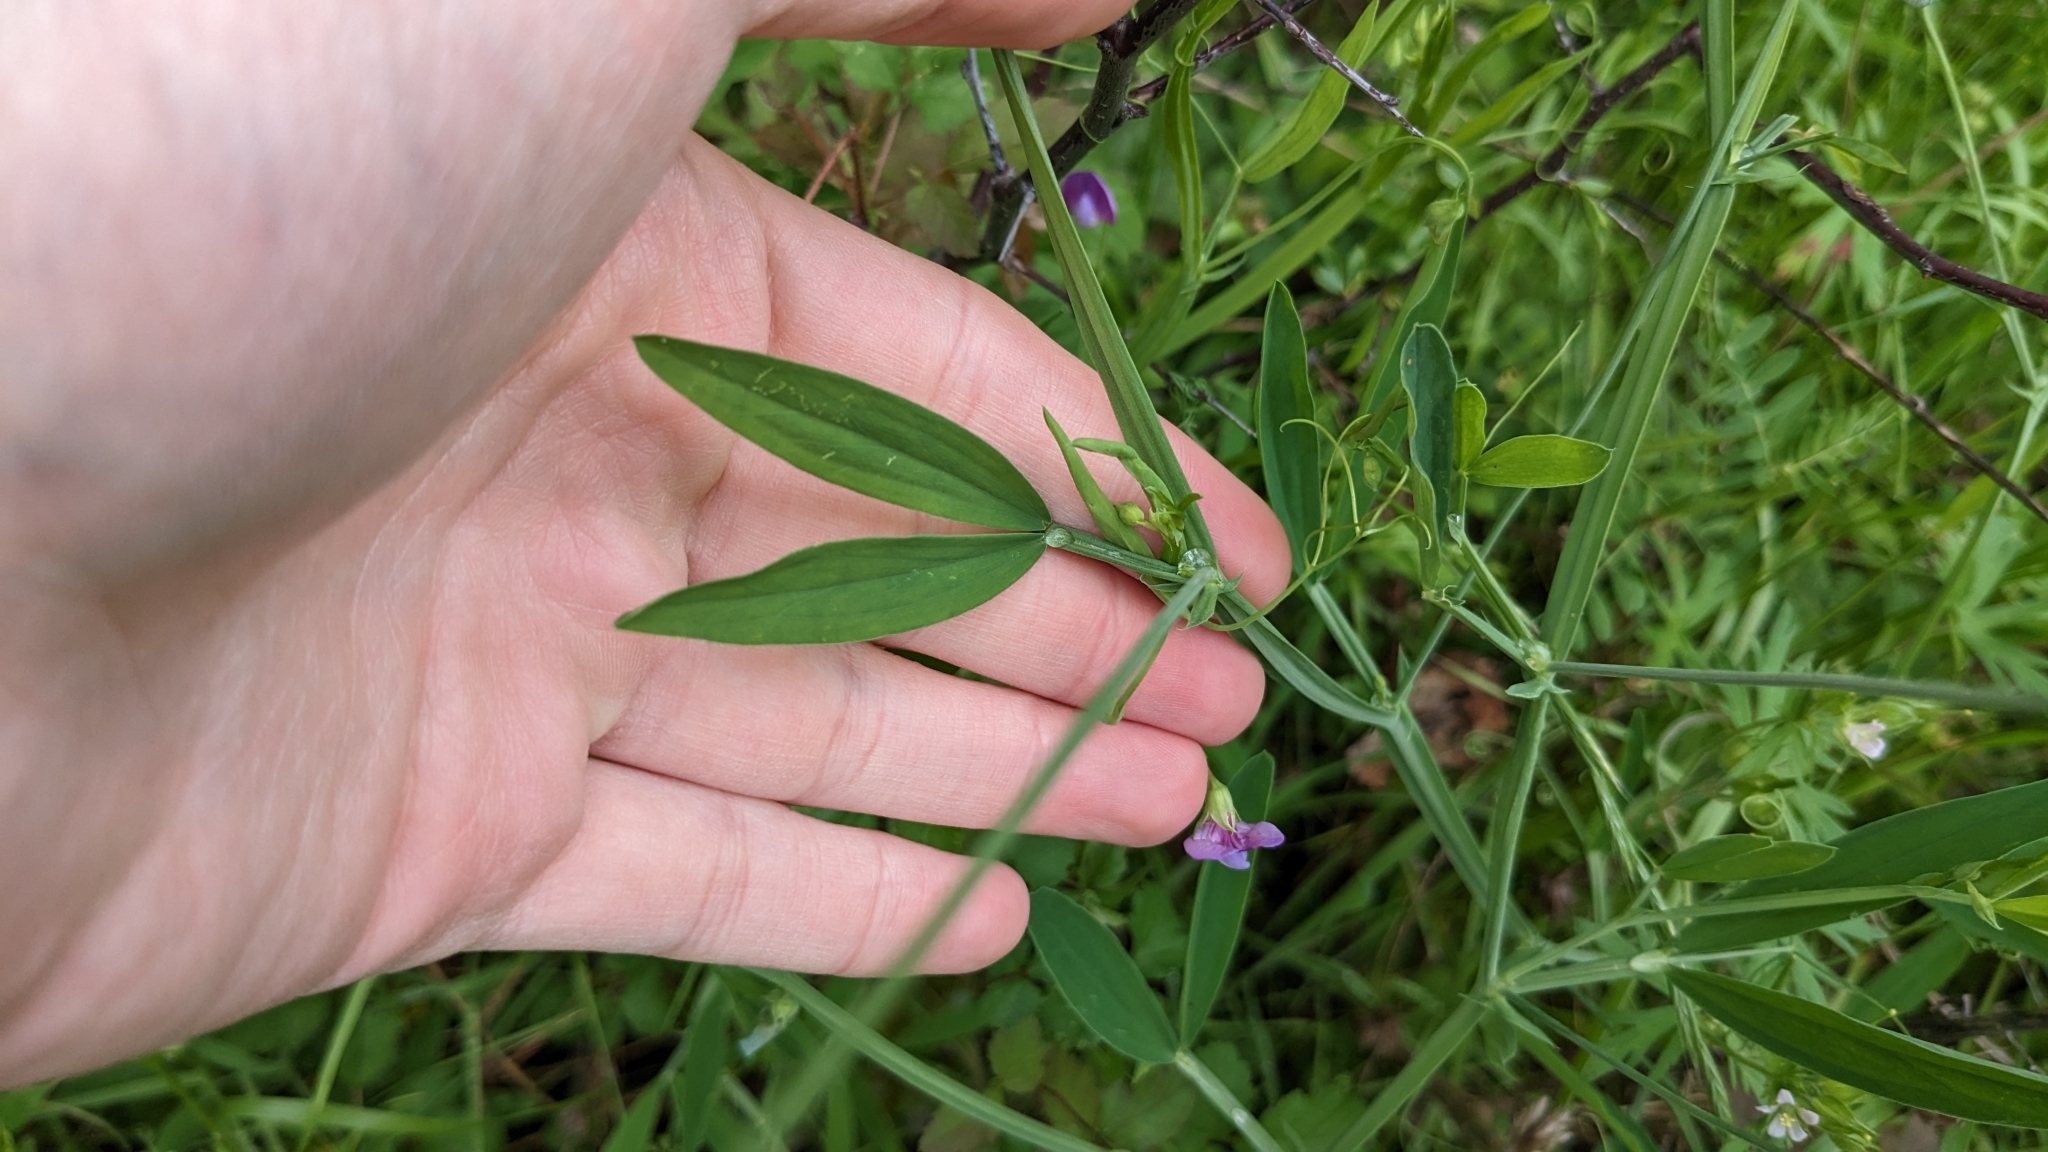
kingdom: Plantae
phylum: Tracheophyta
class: Magnoliopsida
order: Fabales
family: Fabaceae
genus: Lathyrus
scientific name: Lathyrus hirsutus
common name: Hairy vetchling
